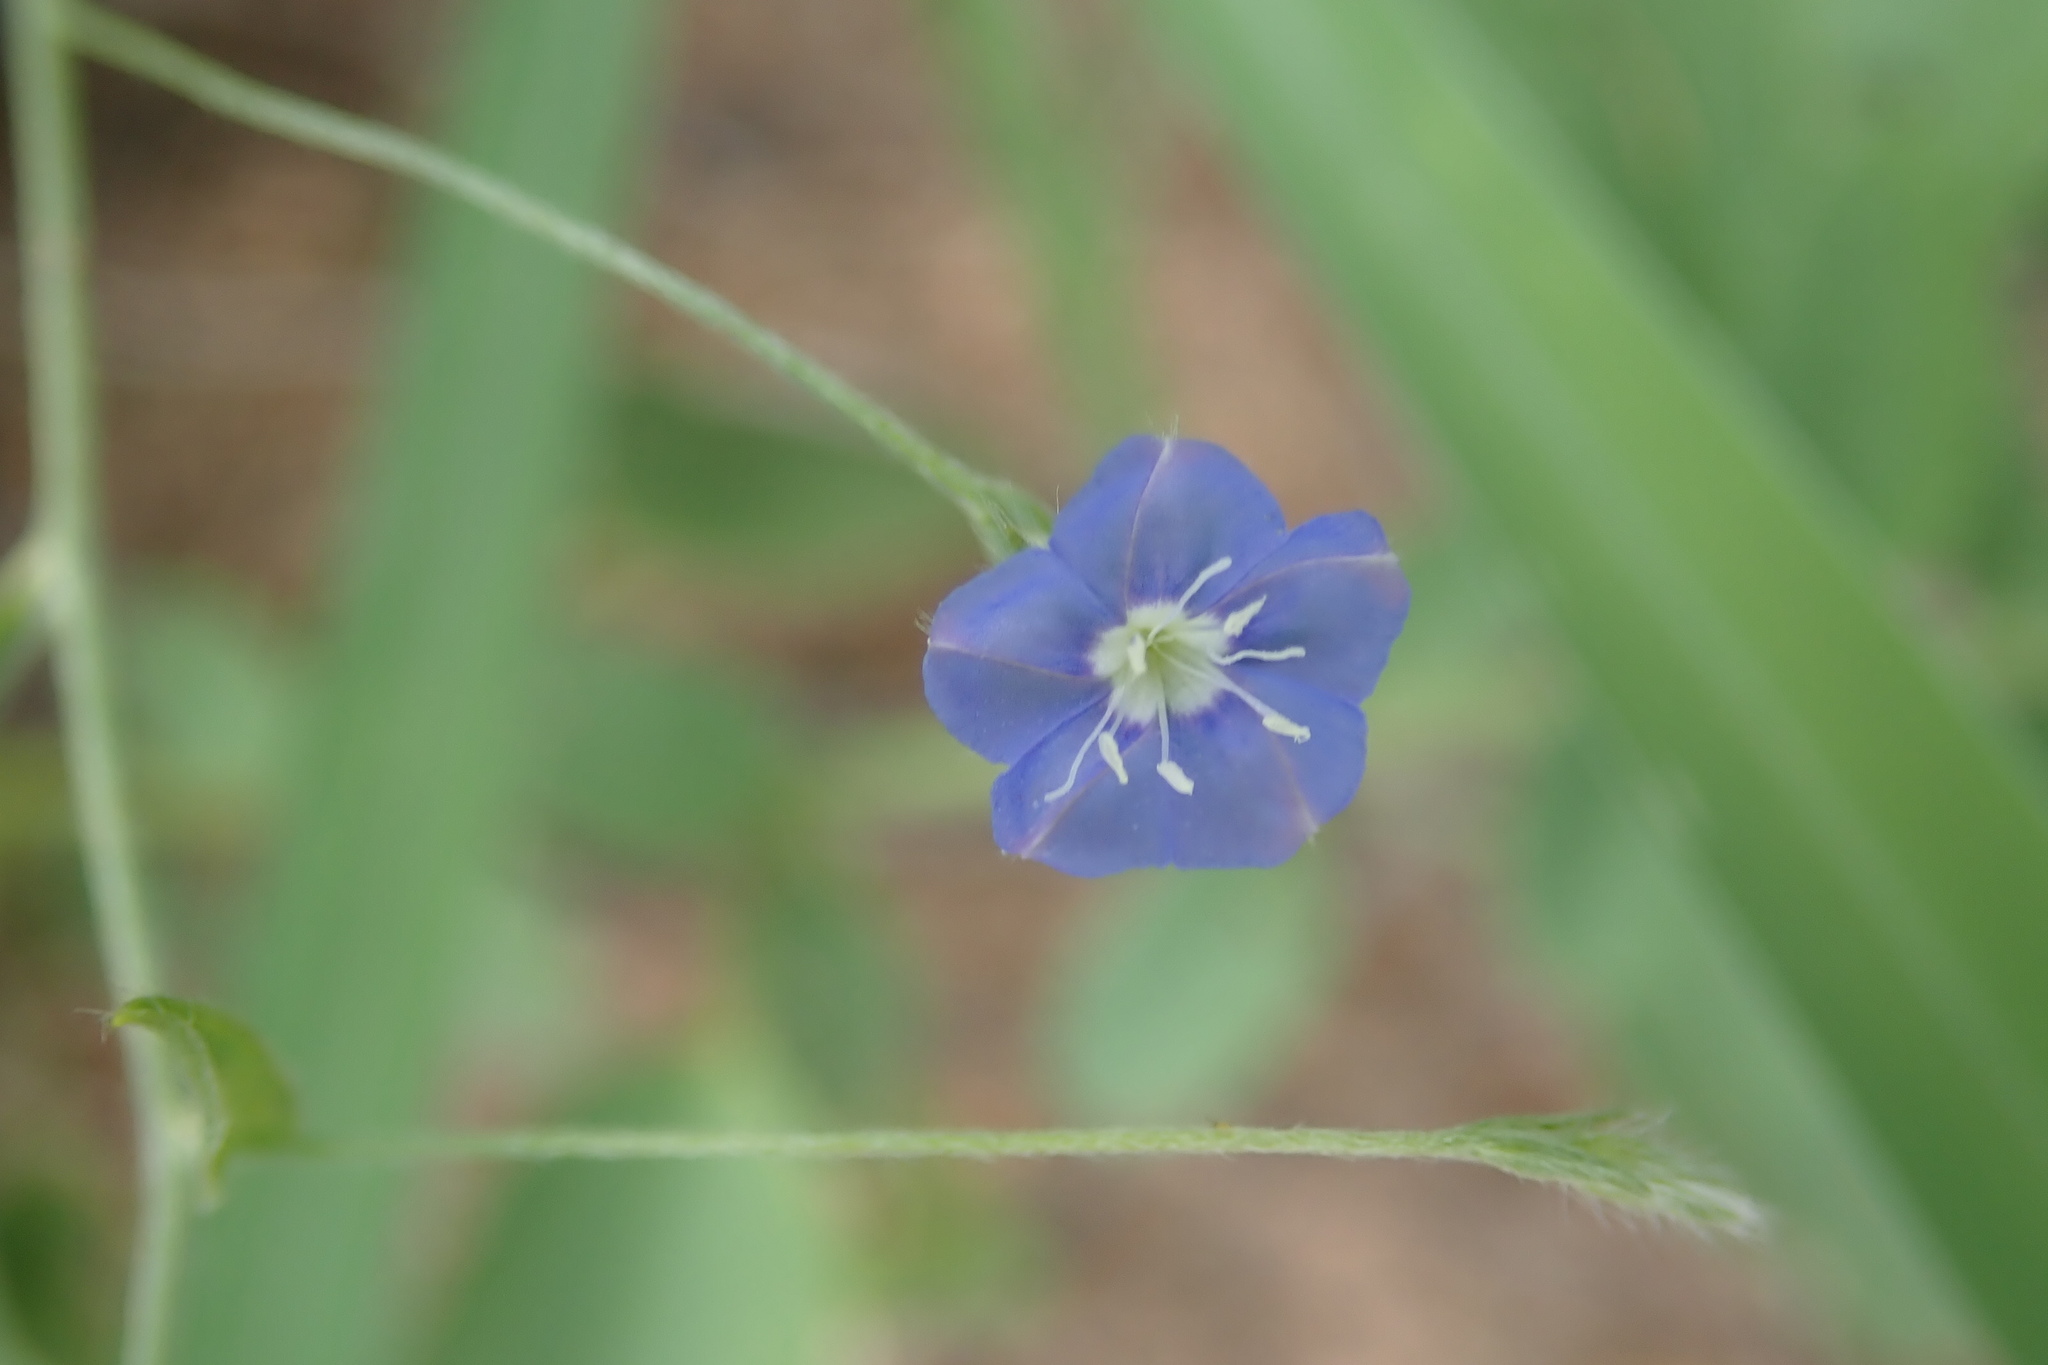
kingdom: Plantae
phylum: Tracheophyta
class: Magnoliopsida
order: Solanales
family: Convolvulaceae
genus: Evolvulus
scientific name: Evolvulus alsinoides
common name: Slender dwarf morning-glory
